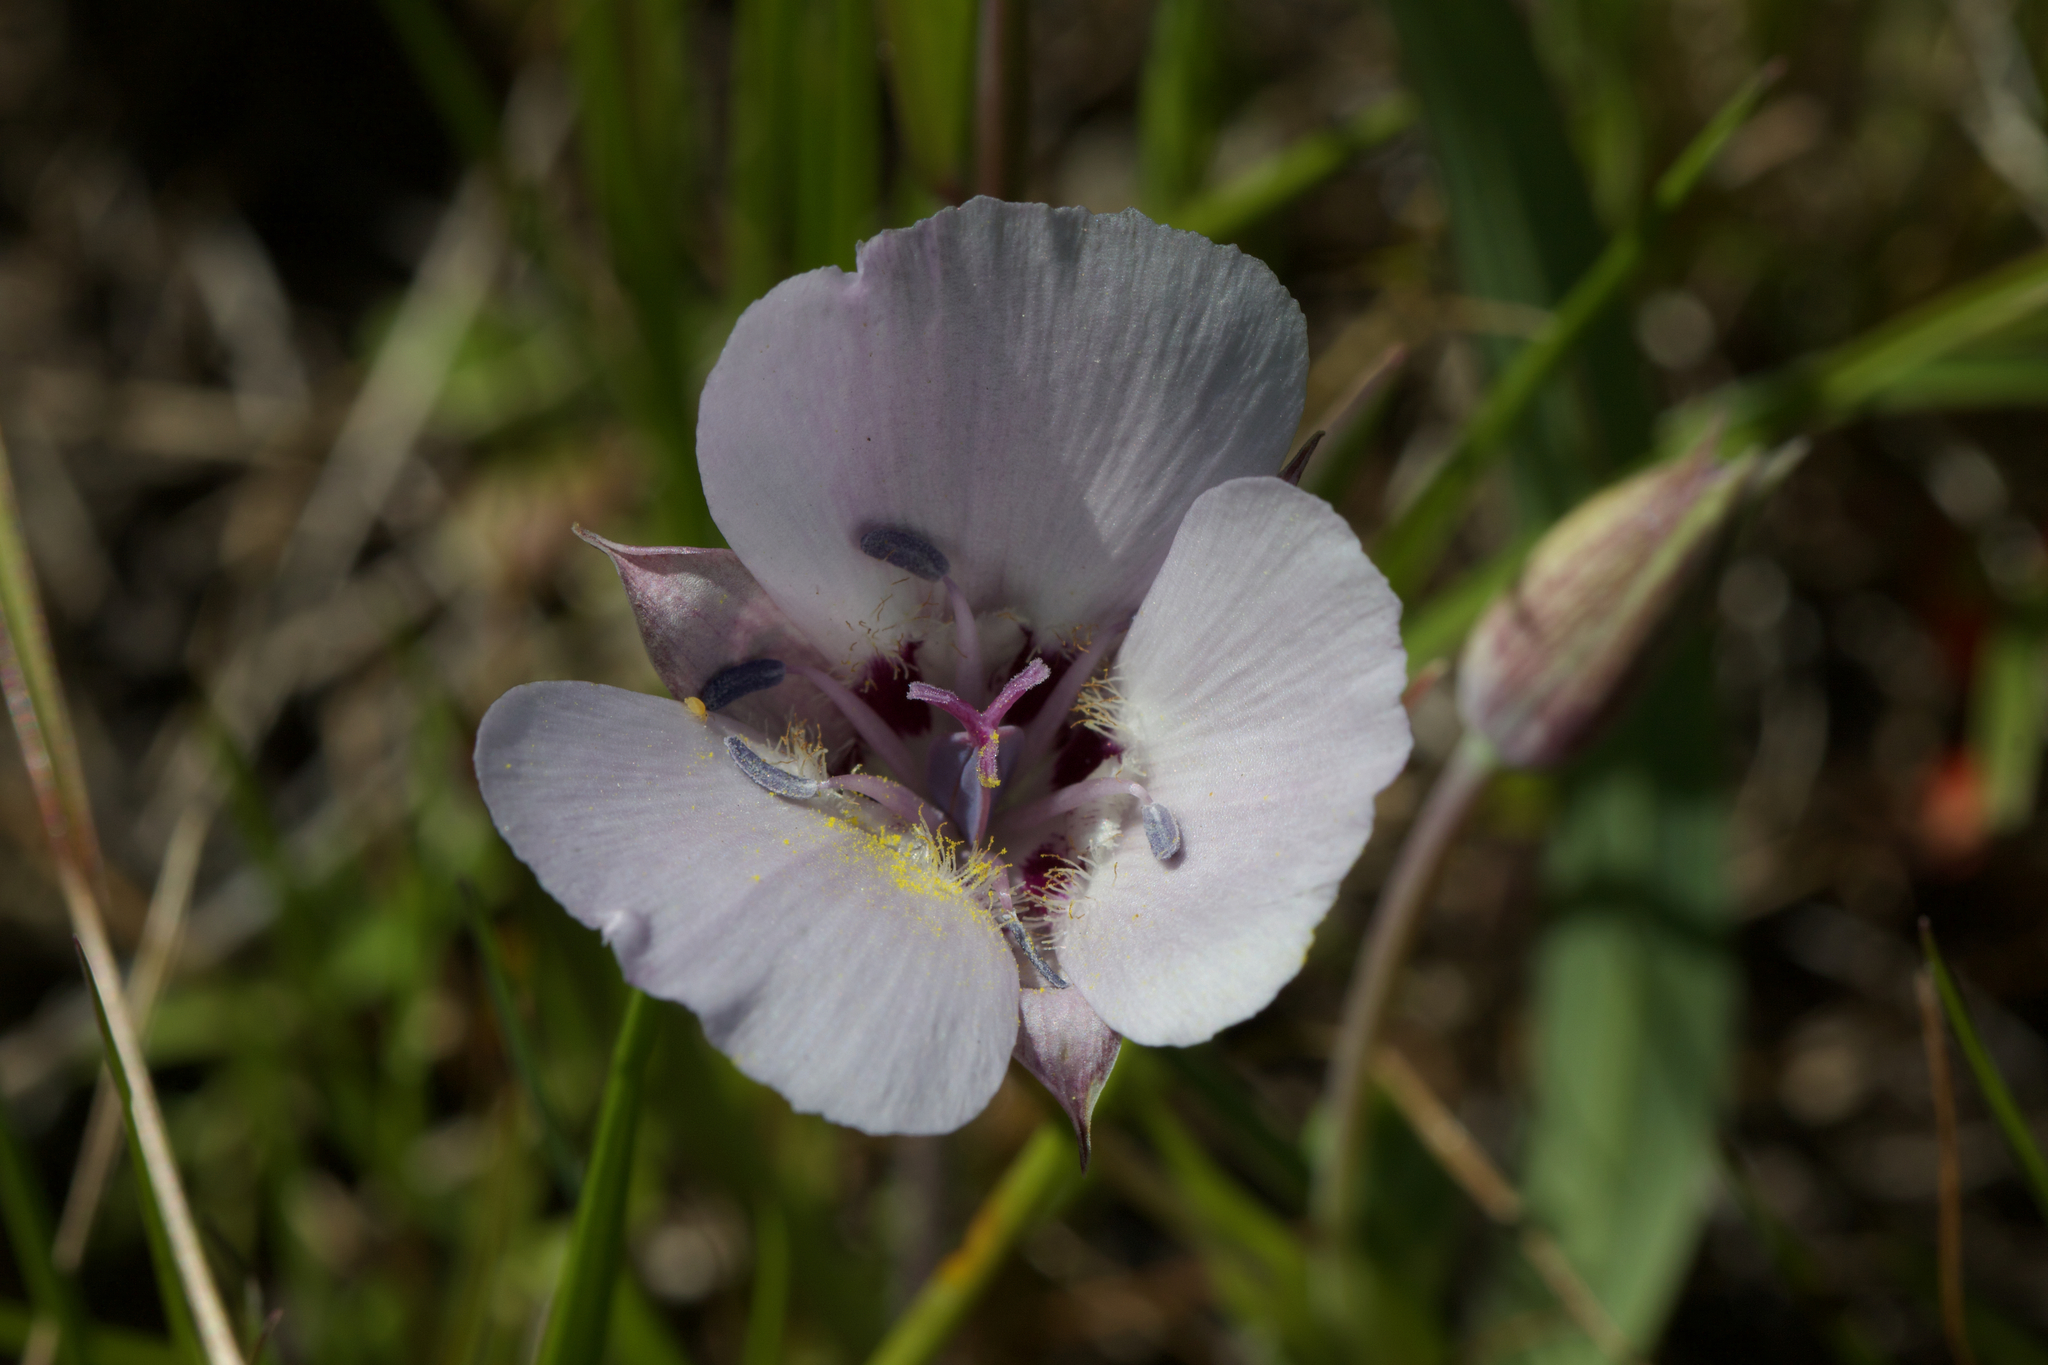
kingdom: Plantae
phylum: Tracheophyta
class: Liliopsida
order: Liliales
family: Liliaceae
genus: Calochortus
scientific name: Calochortus umbellatus
